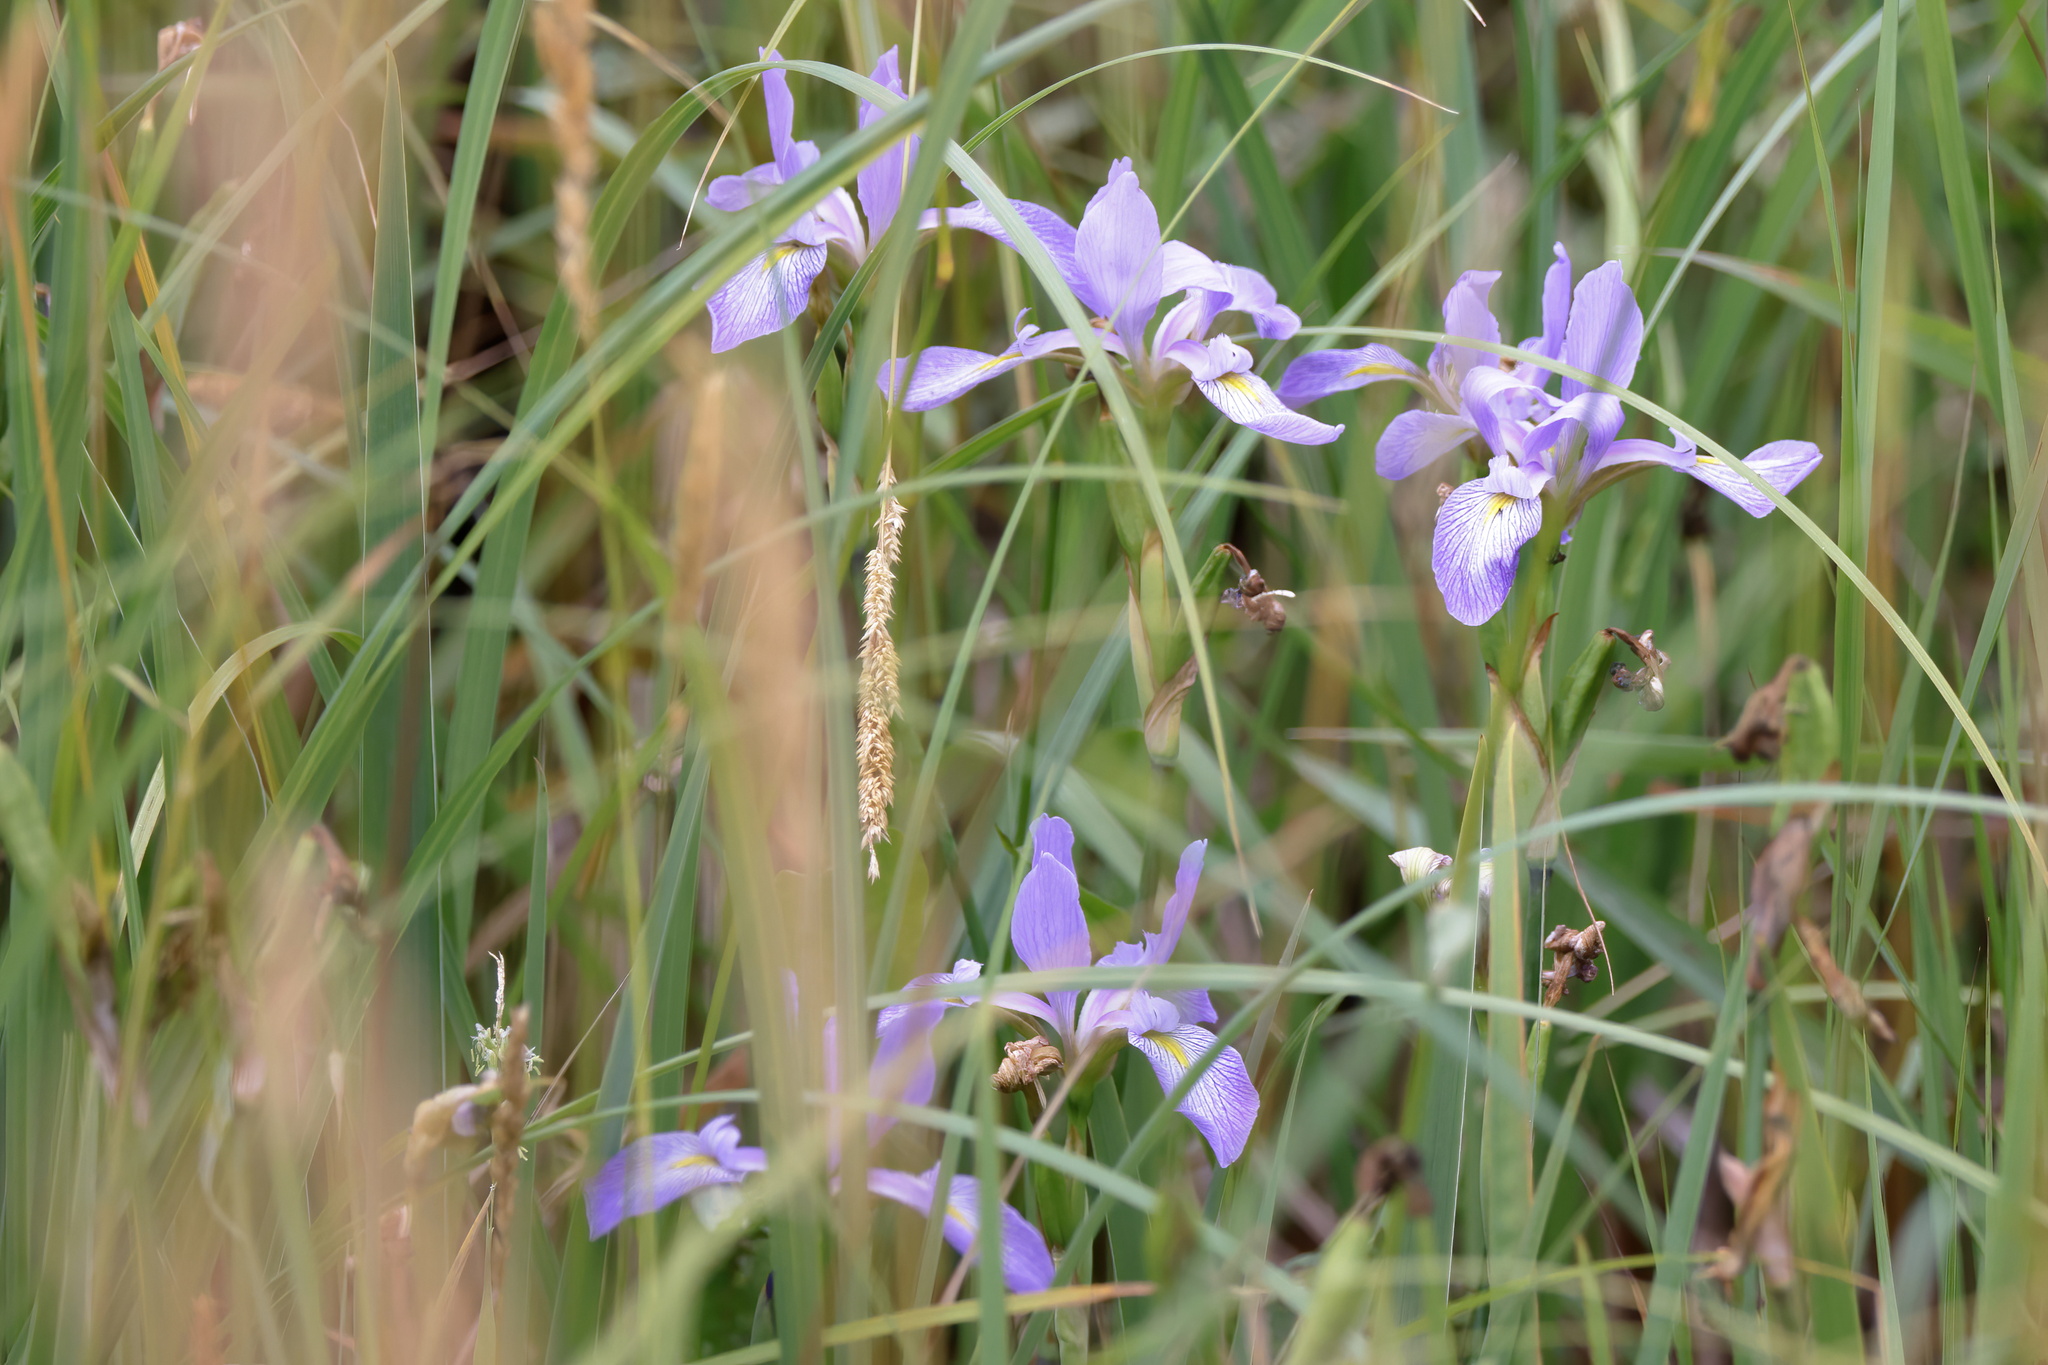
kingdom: Plantae
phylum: Tracheophyta
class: Liliopsida
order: Asparagales
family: Iridaceae
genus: Iris
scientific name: Iris virginica
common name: Southern blue flag
